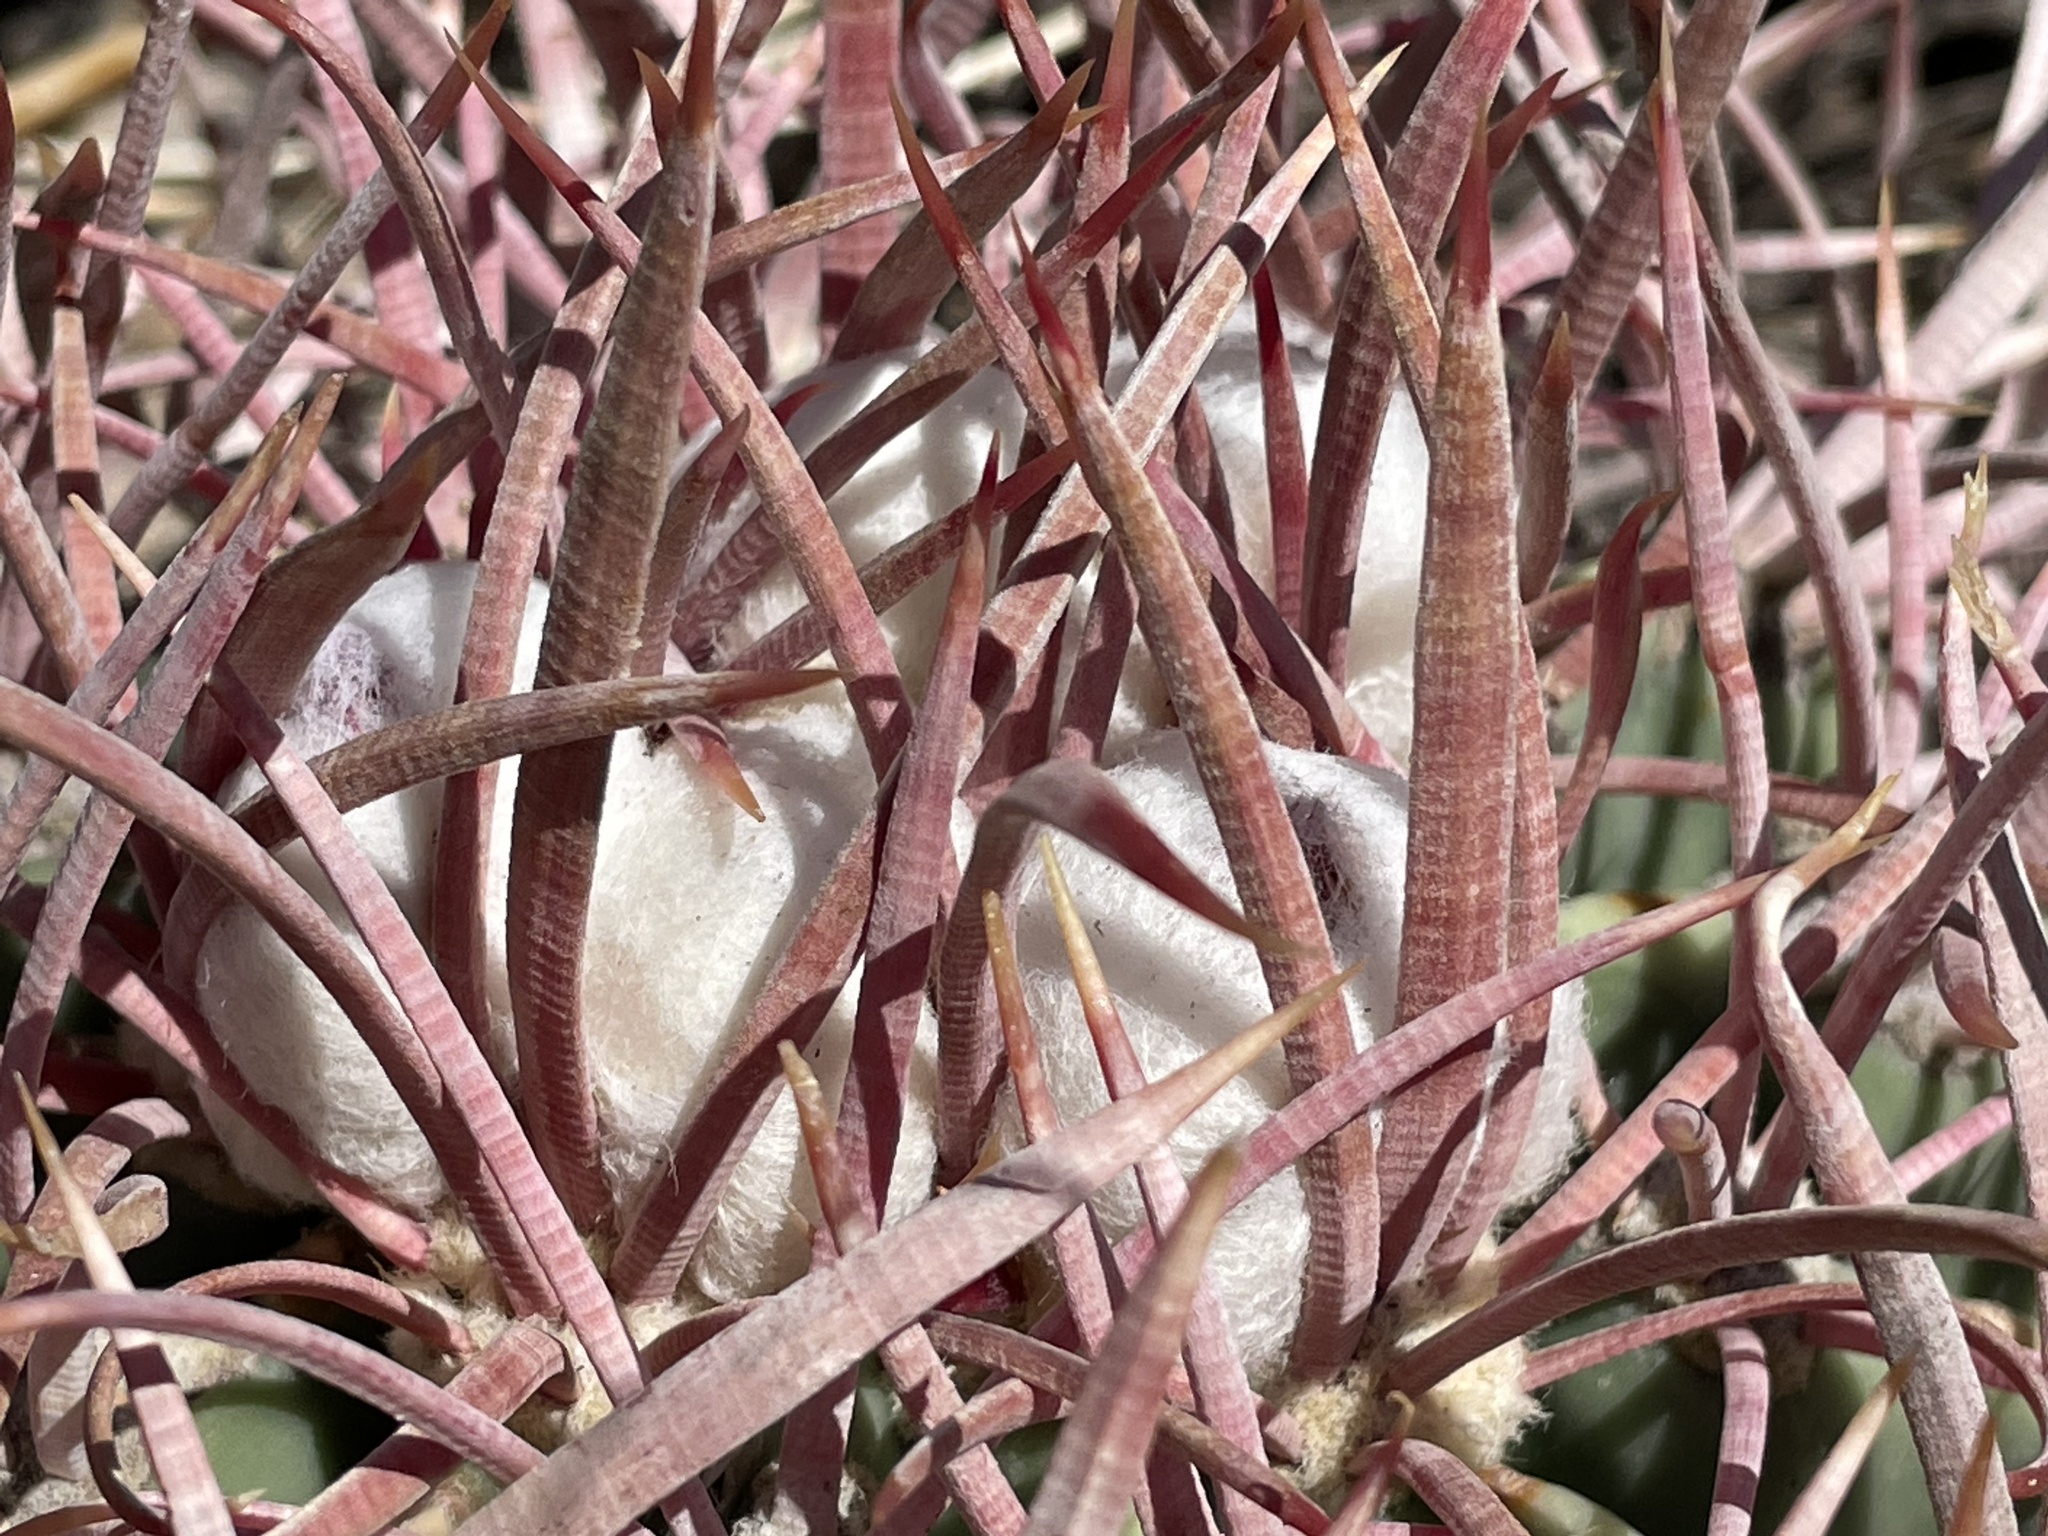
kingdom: Plantae
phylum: Tracheophyta
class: Magnoliopsida
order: Caryophyllales
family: Cactaceae
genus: Echinocactus
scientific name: Echinocactus polycephalus
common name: Cottontop cactus
